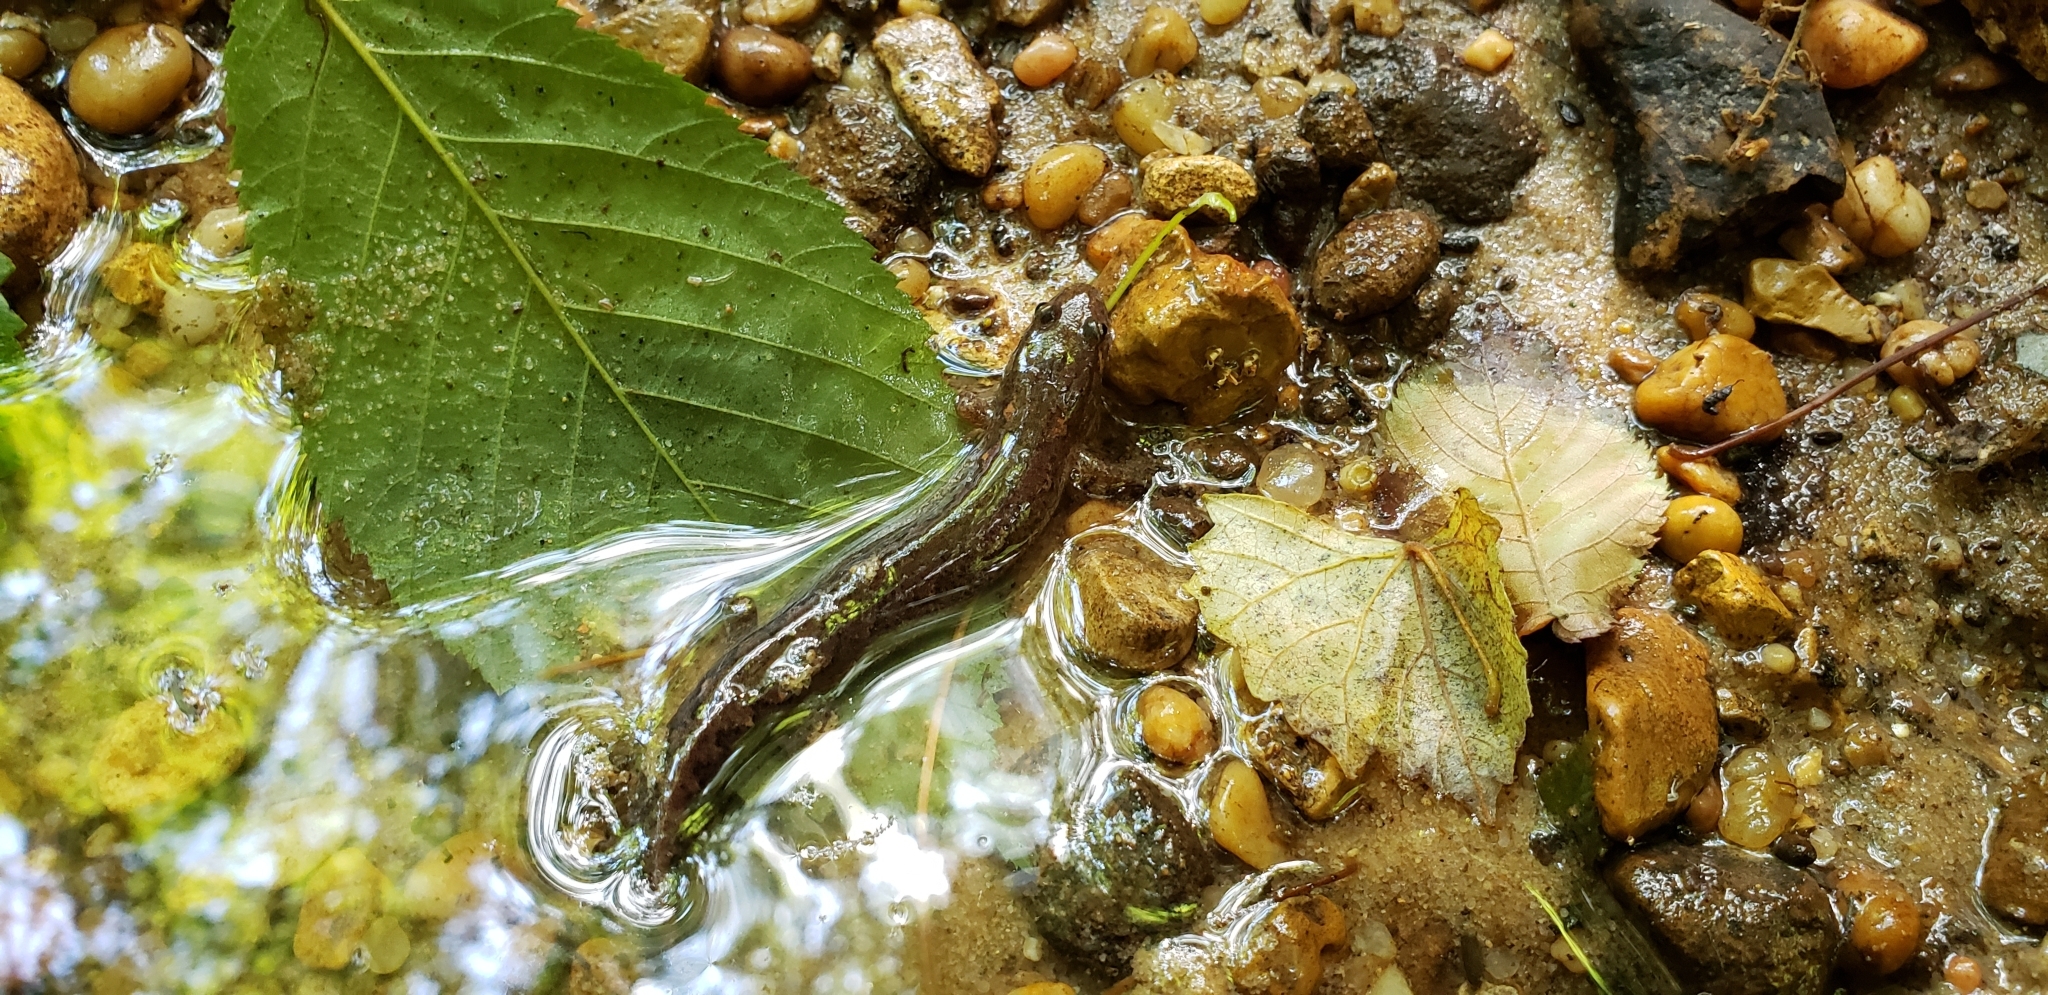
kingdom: Animalia
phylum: Chordata
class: Amphibia
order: Caudata
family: Plethodontidae
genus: Desmognathus
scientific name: Desmognathus conanti
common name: Spotted dusky salamander
